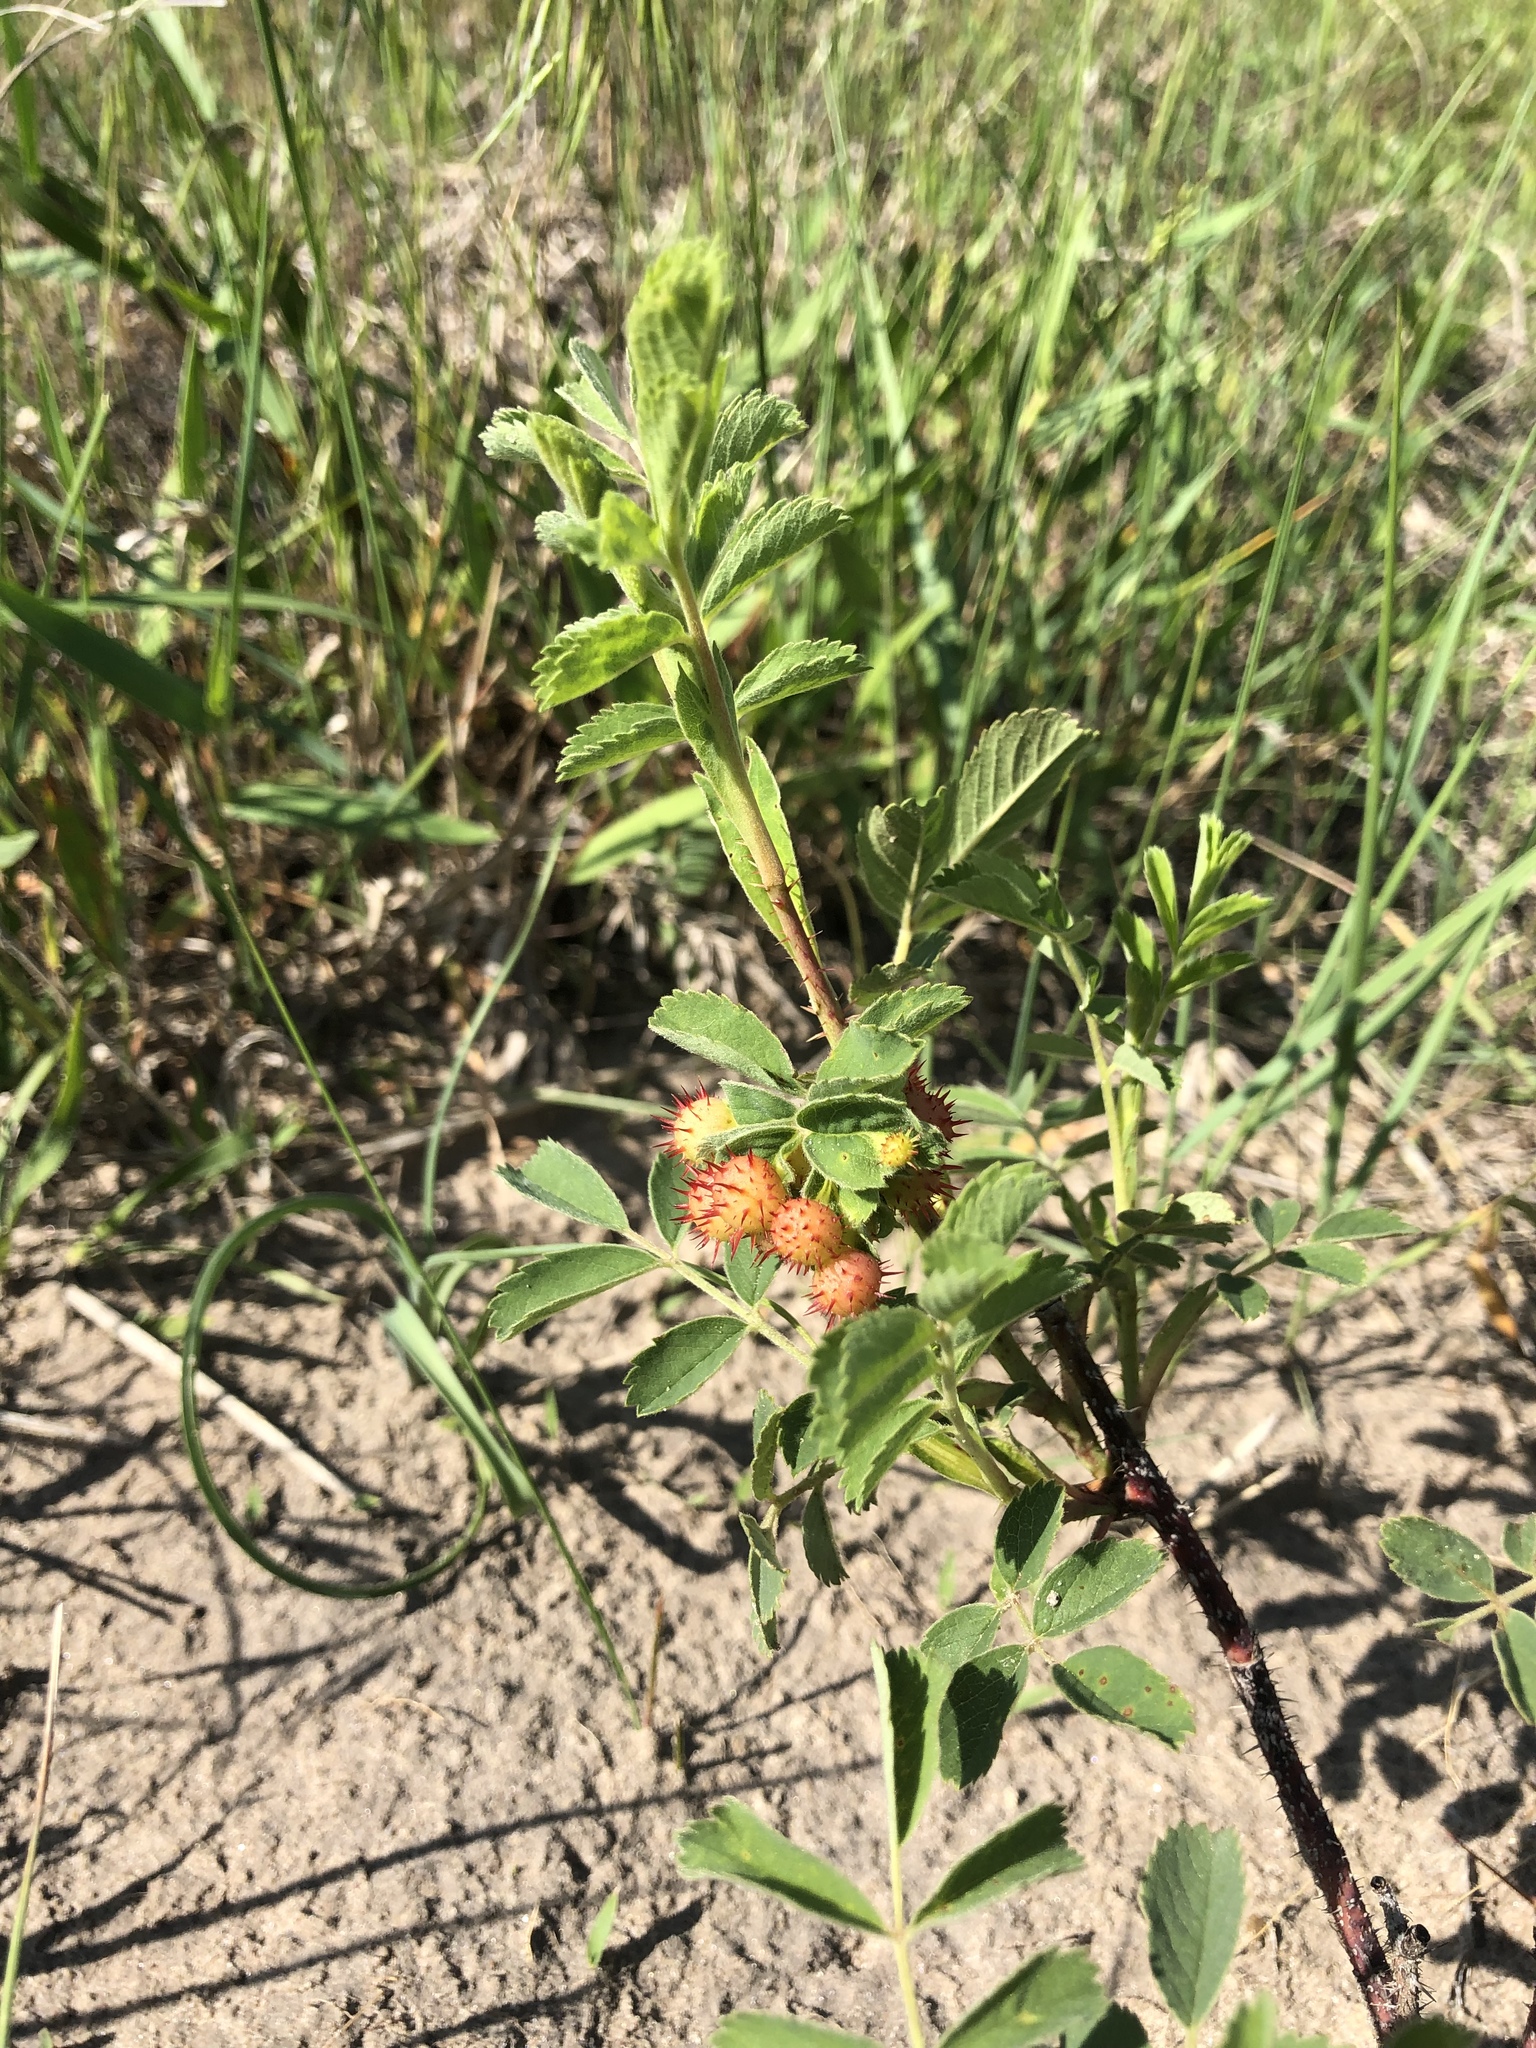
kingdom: Plantae
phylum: Tracheophyta
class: Magnoliopsida
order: Rosales
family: Rosaceae
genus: Rosa
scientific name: Rosa arkansana
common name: Prairie rose
